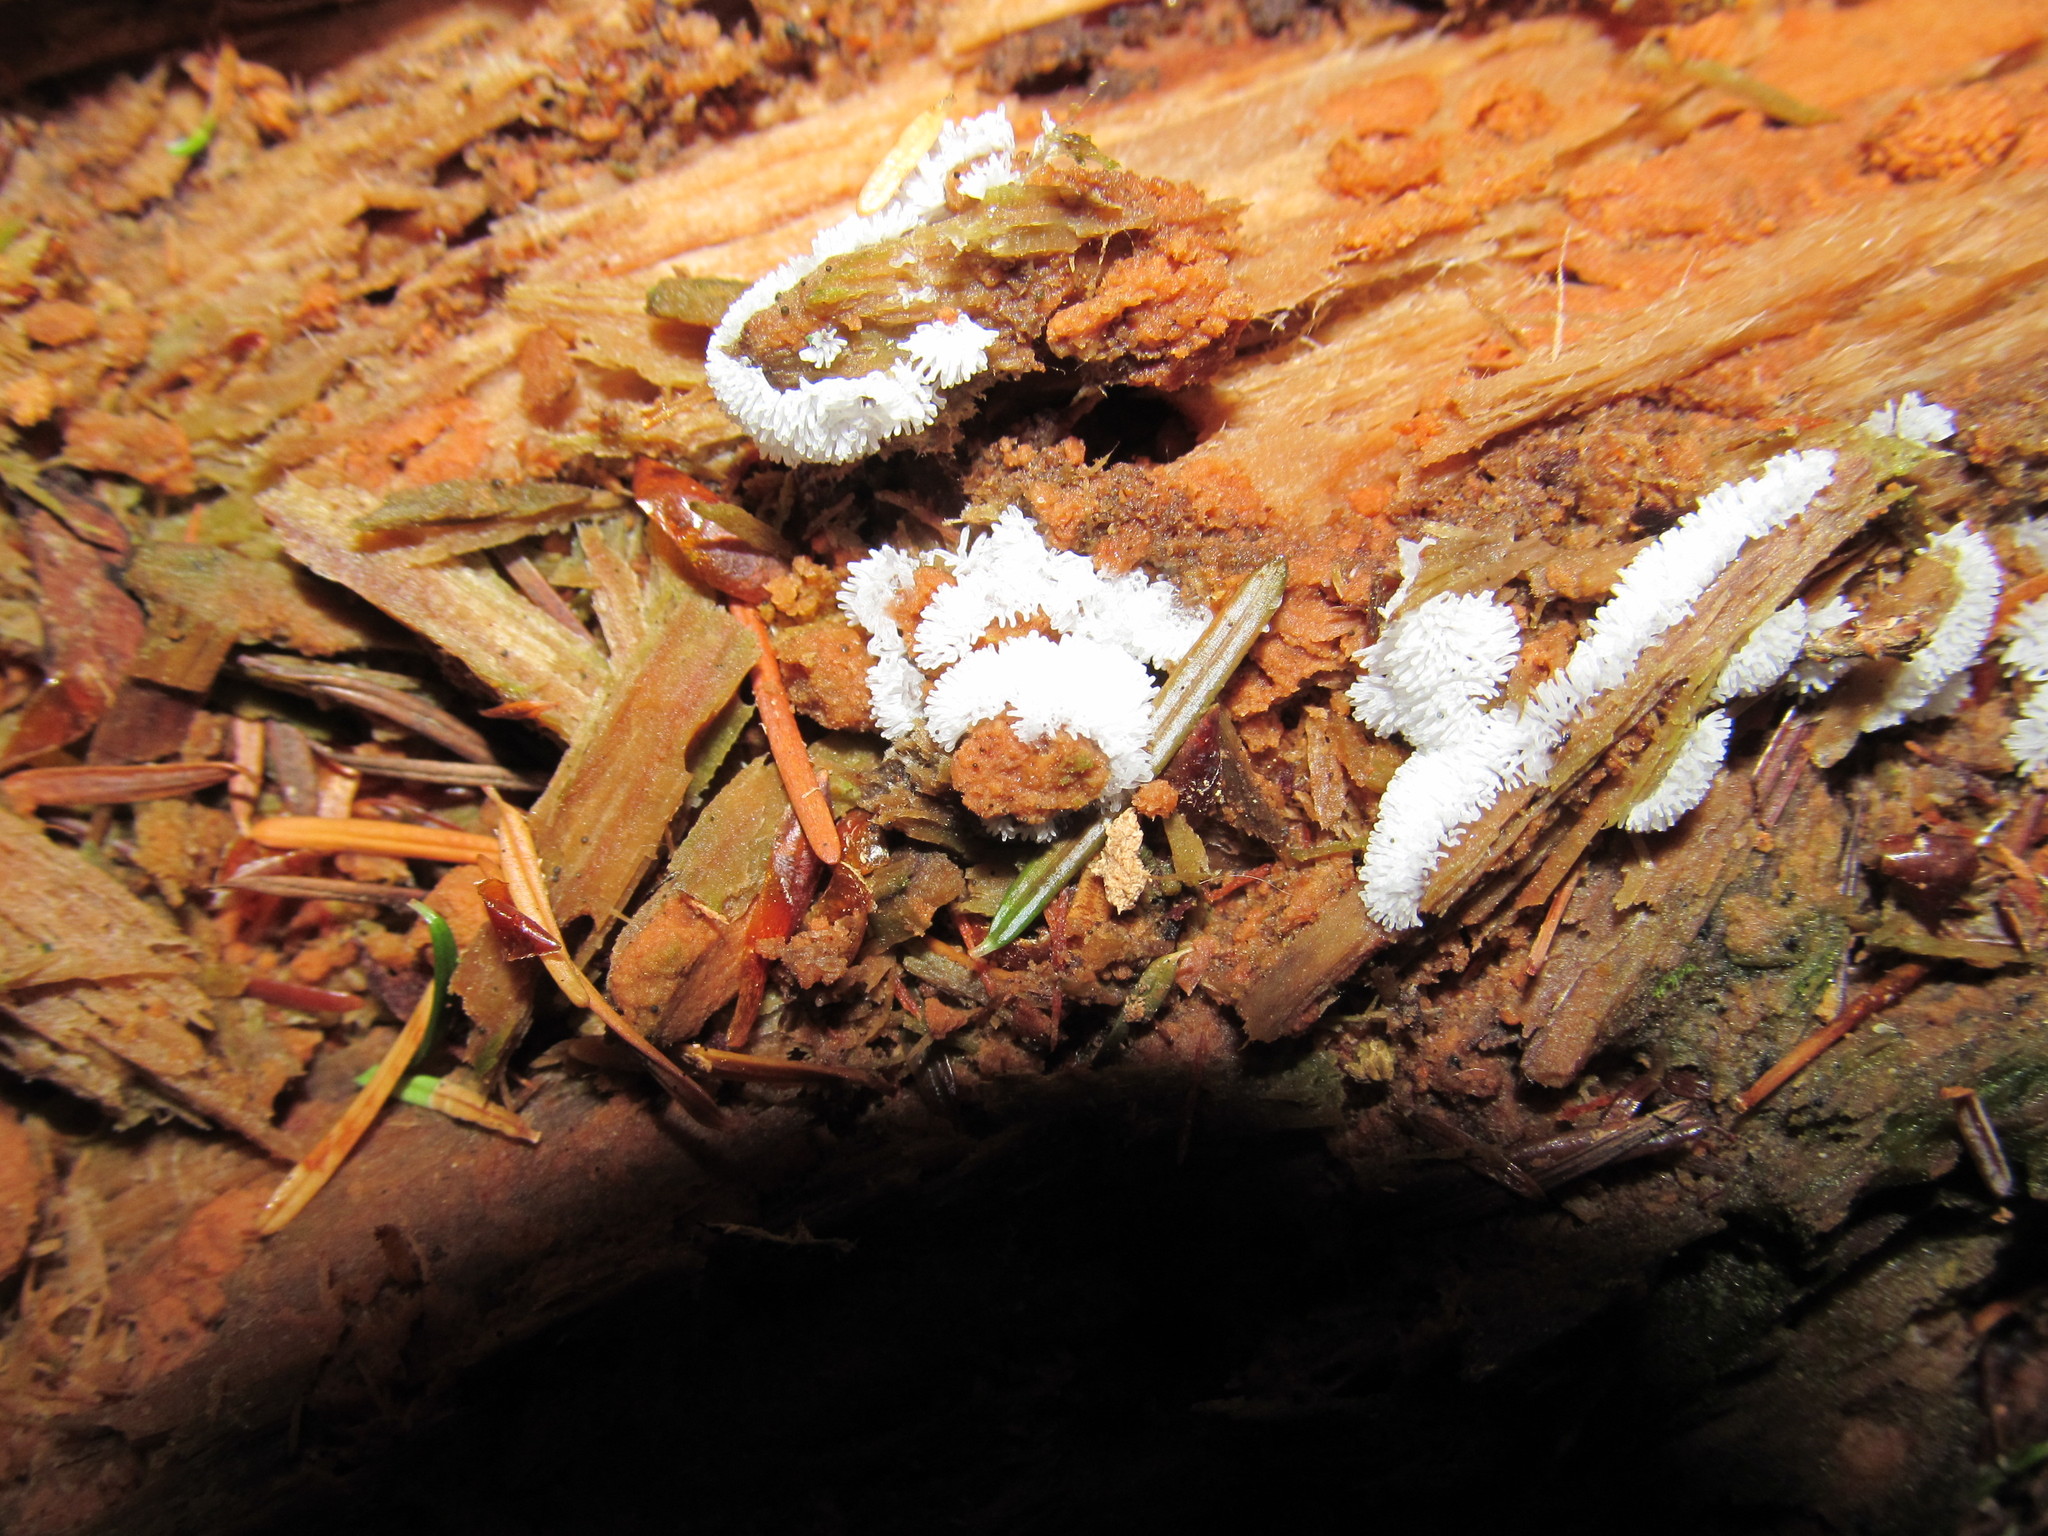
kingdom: Protozoa
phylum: Mycetozoa
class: Protosteliomycetes
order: Ceratiomyxales
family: Ceratiomyxaceae
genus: Ceratiomyxa
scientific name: Ceratiomyxa fruticulosa
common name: Honeycomb coral slime mold
